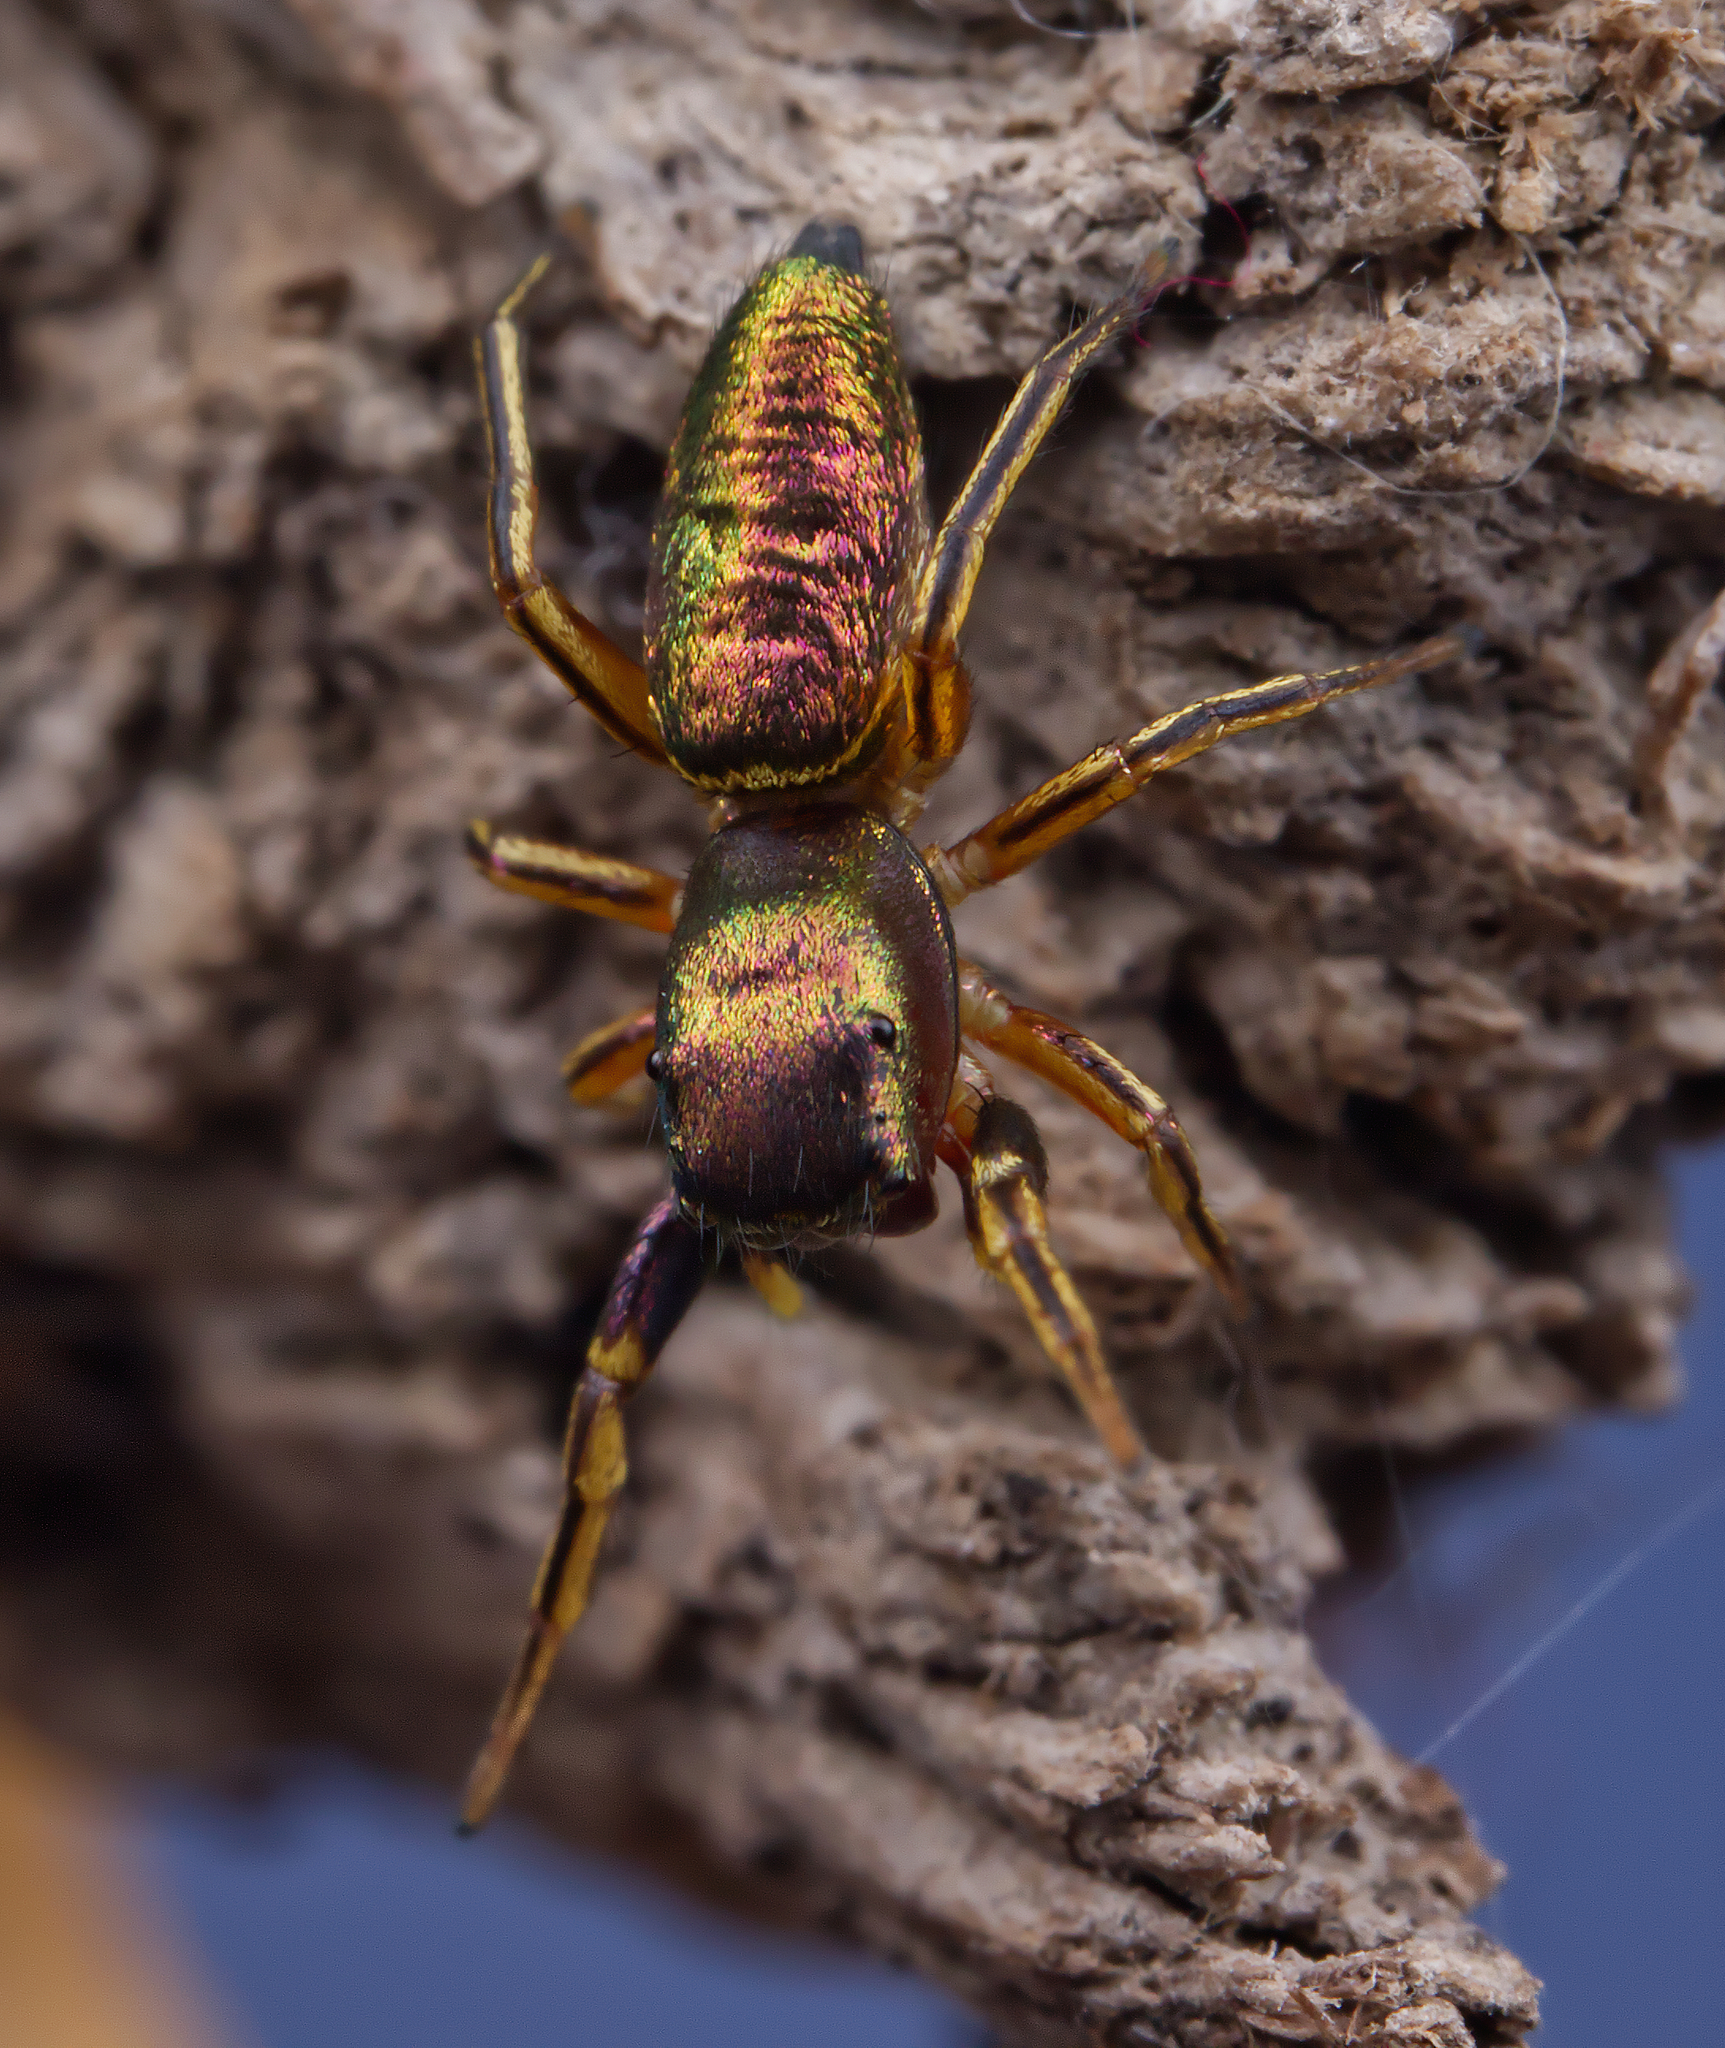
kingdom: Animalia
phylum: Arthropoda
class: Arachnida
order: Araneae
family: Salticidae
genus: Tutelina
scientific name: Tutelina elegans
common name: Thin-spined jumping spider
